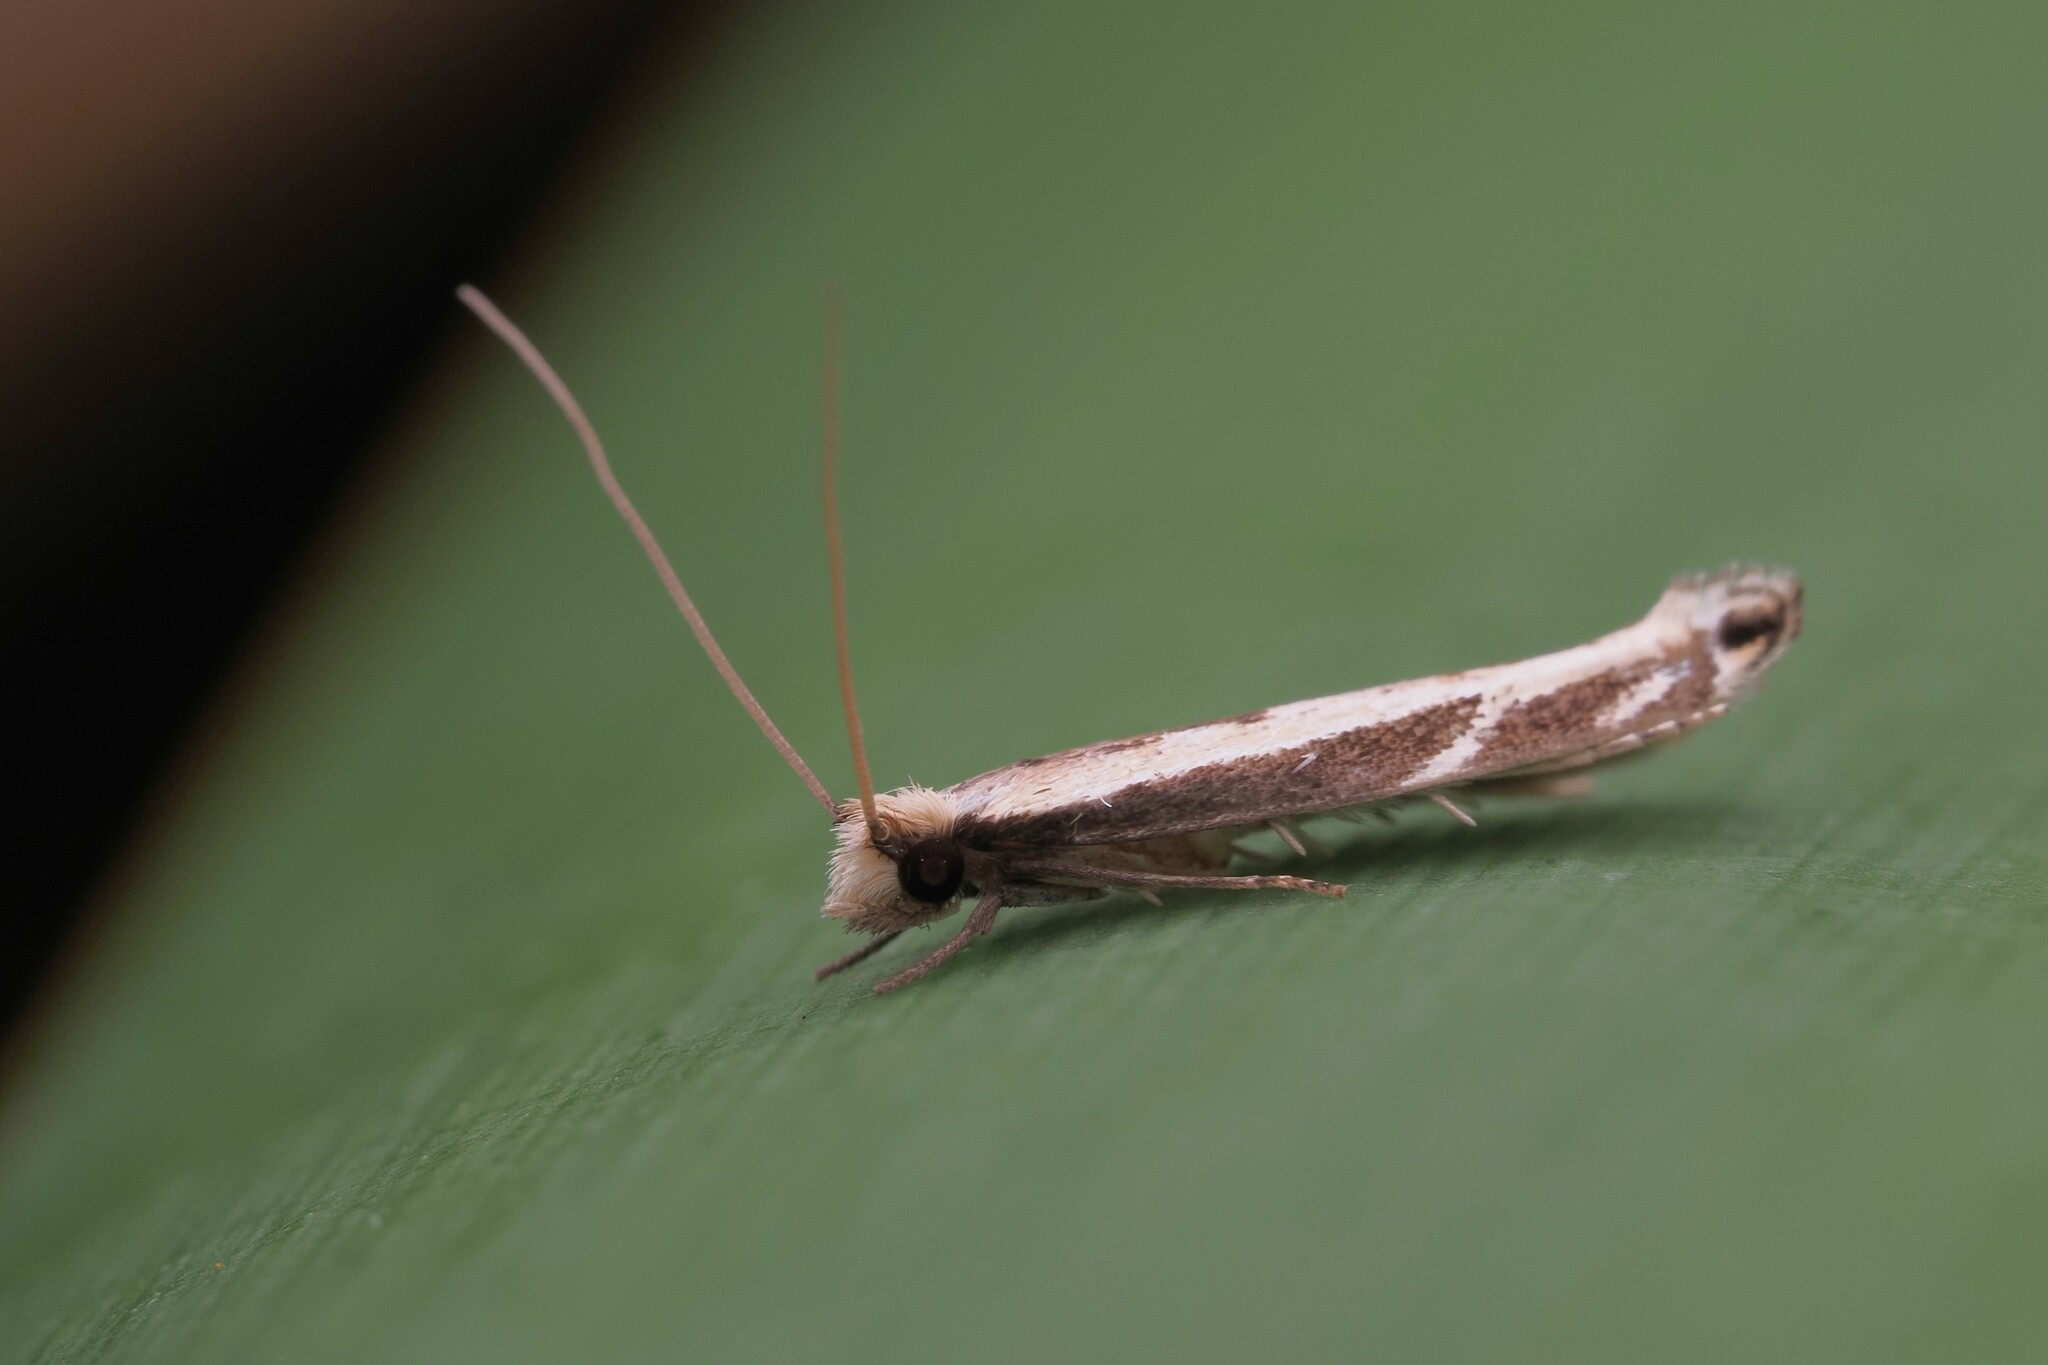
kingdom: Animalia
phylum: Arthropoda
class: Insecta
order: Lepidoptera
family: Tineidae
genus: Erechthias
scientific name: Erechthias terminella
